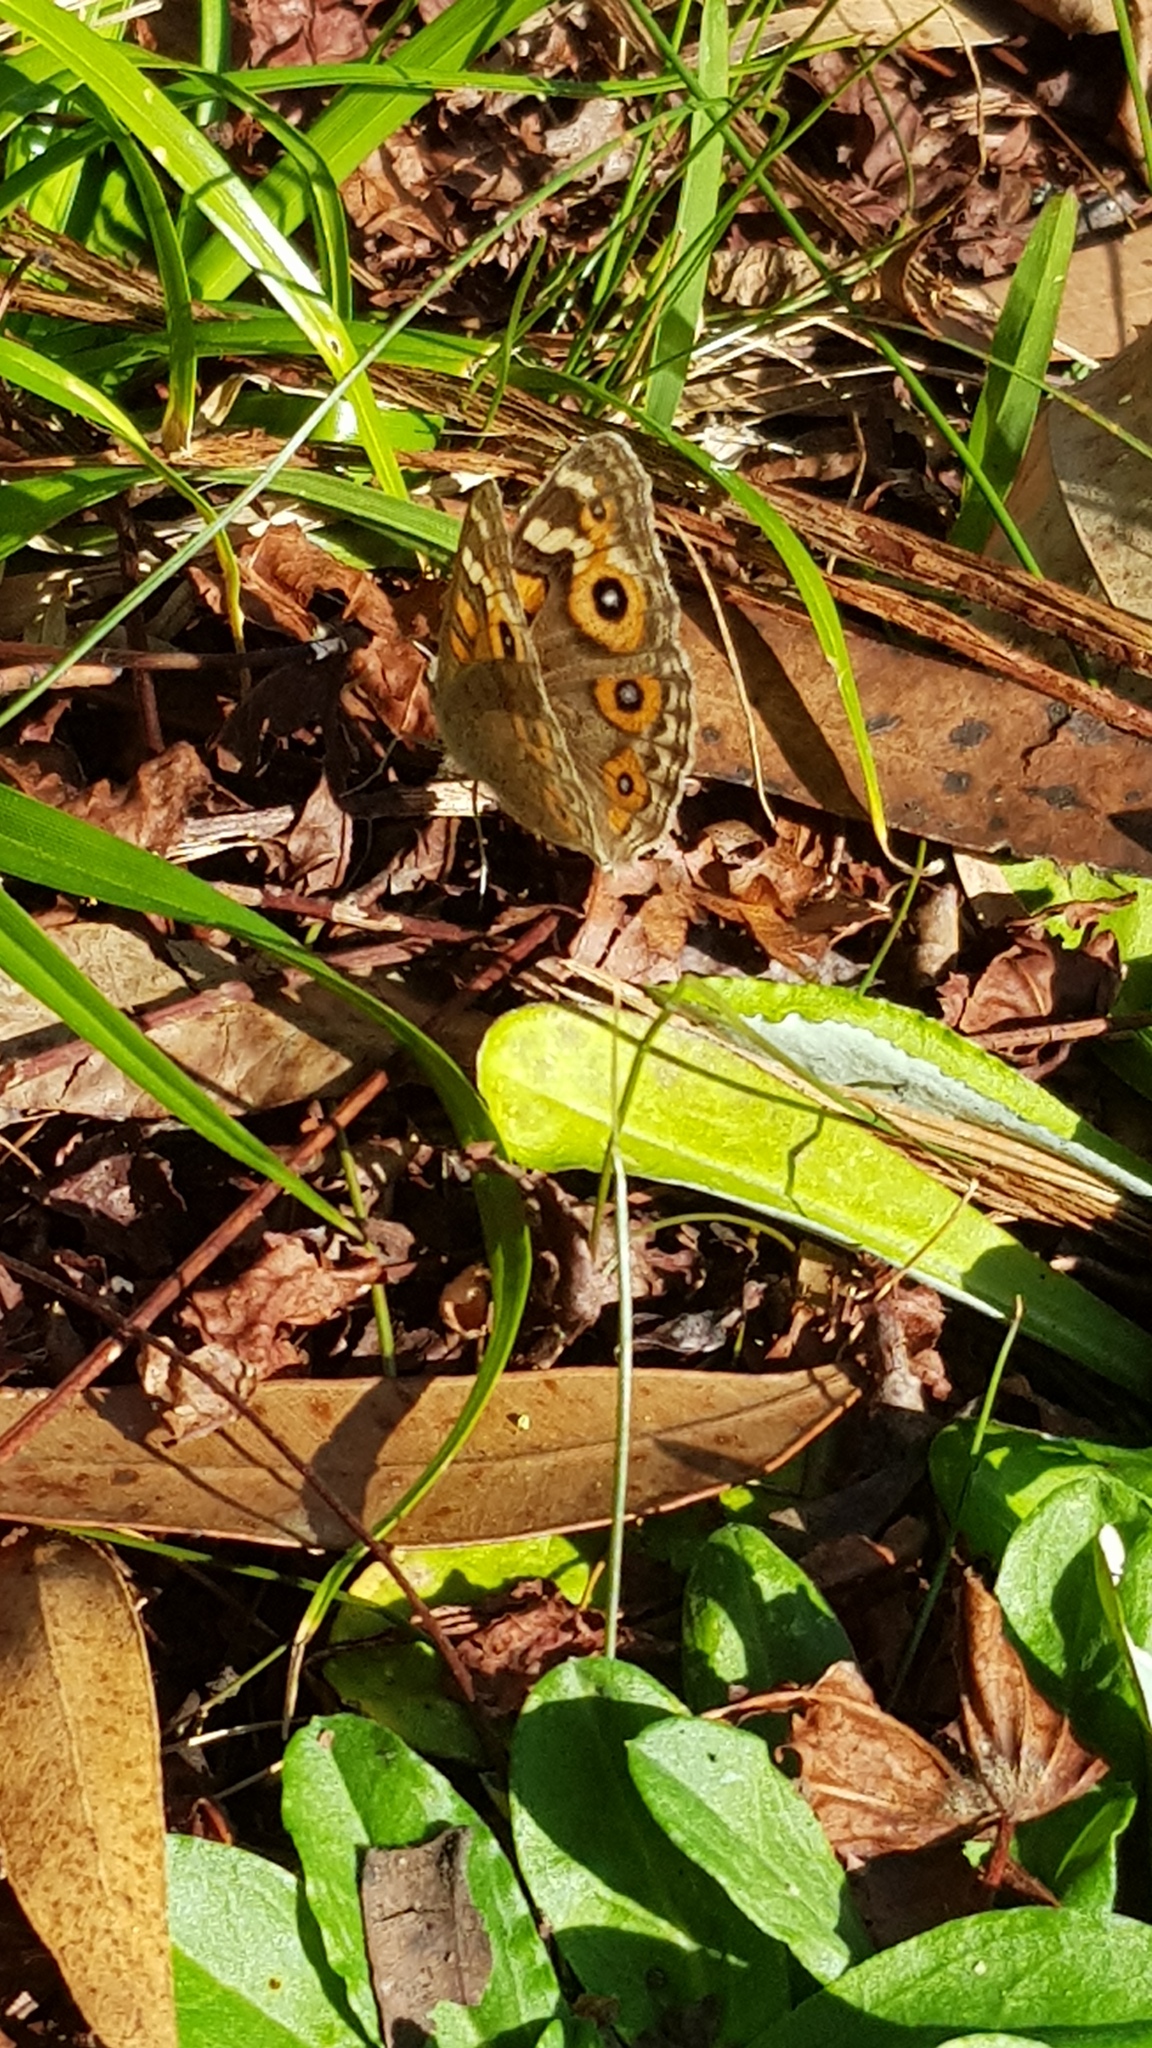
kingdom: Animalia
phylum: Arthropoda
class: Insecta
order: Lepidoptera
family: Nymphalidae
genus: Junonia
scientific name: Junonia villida
